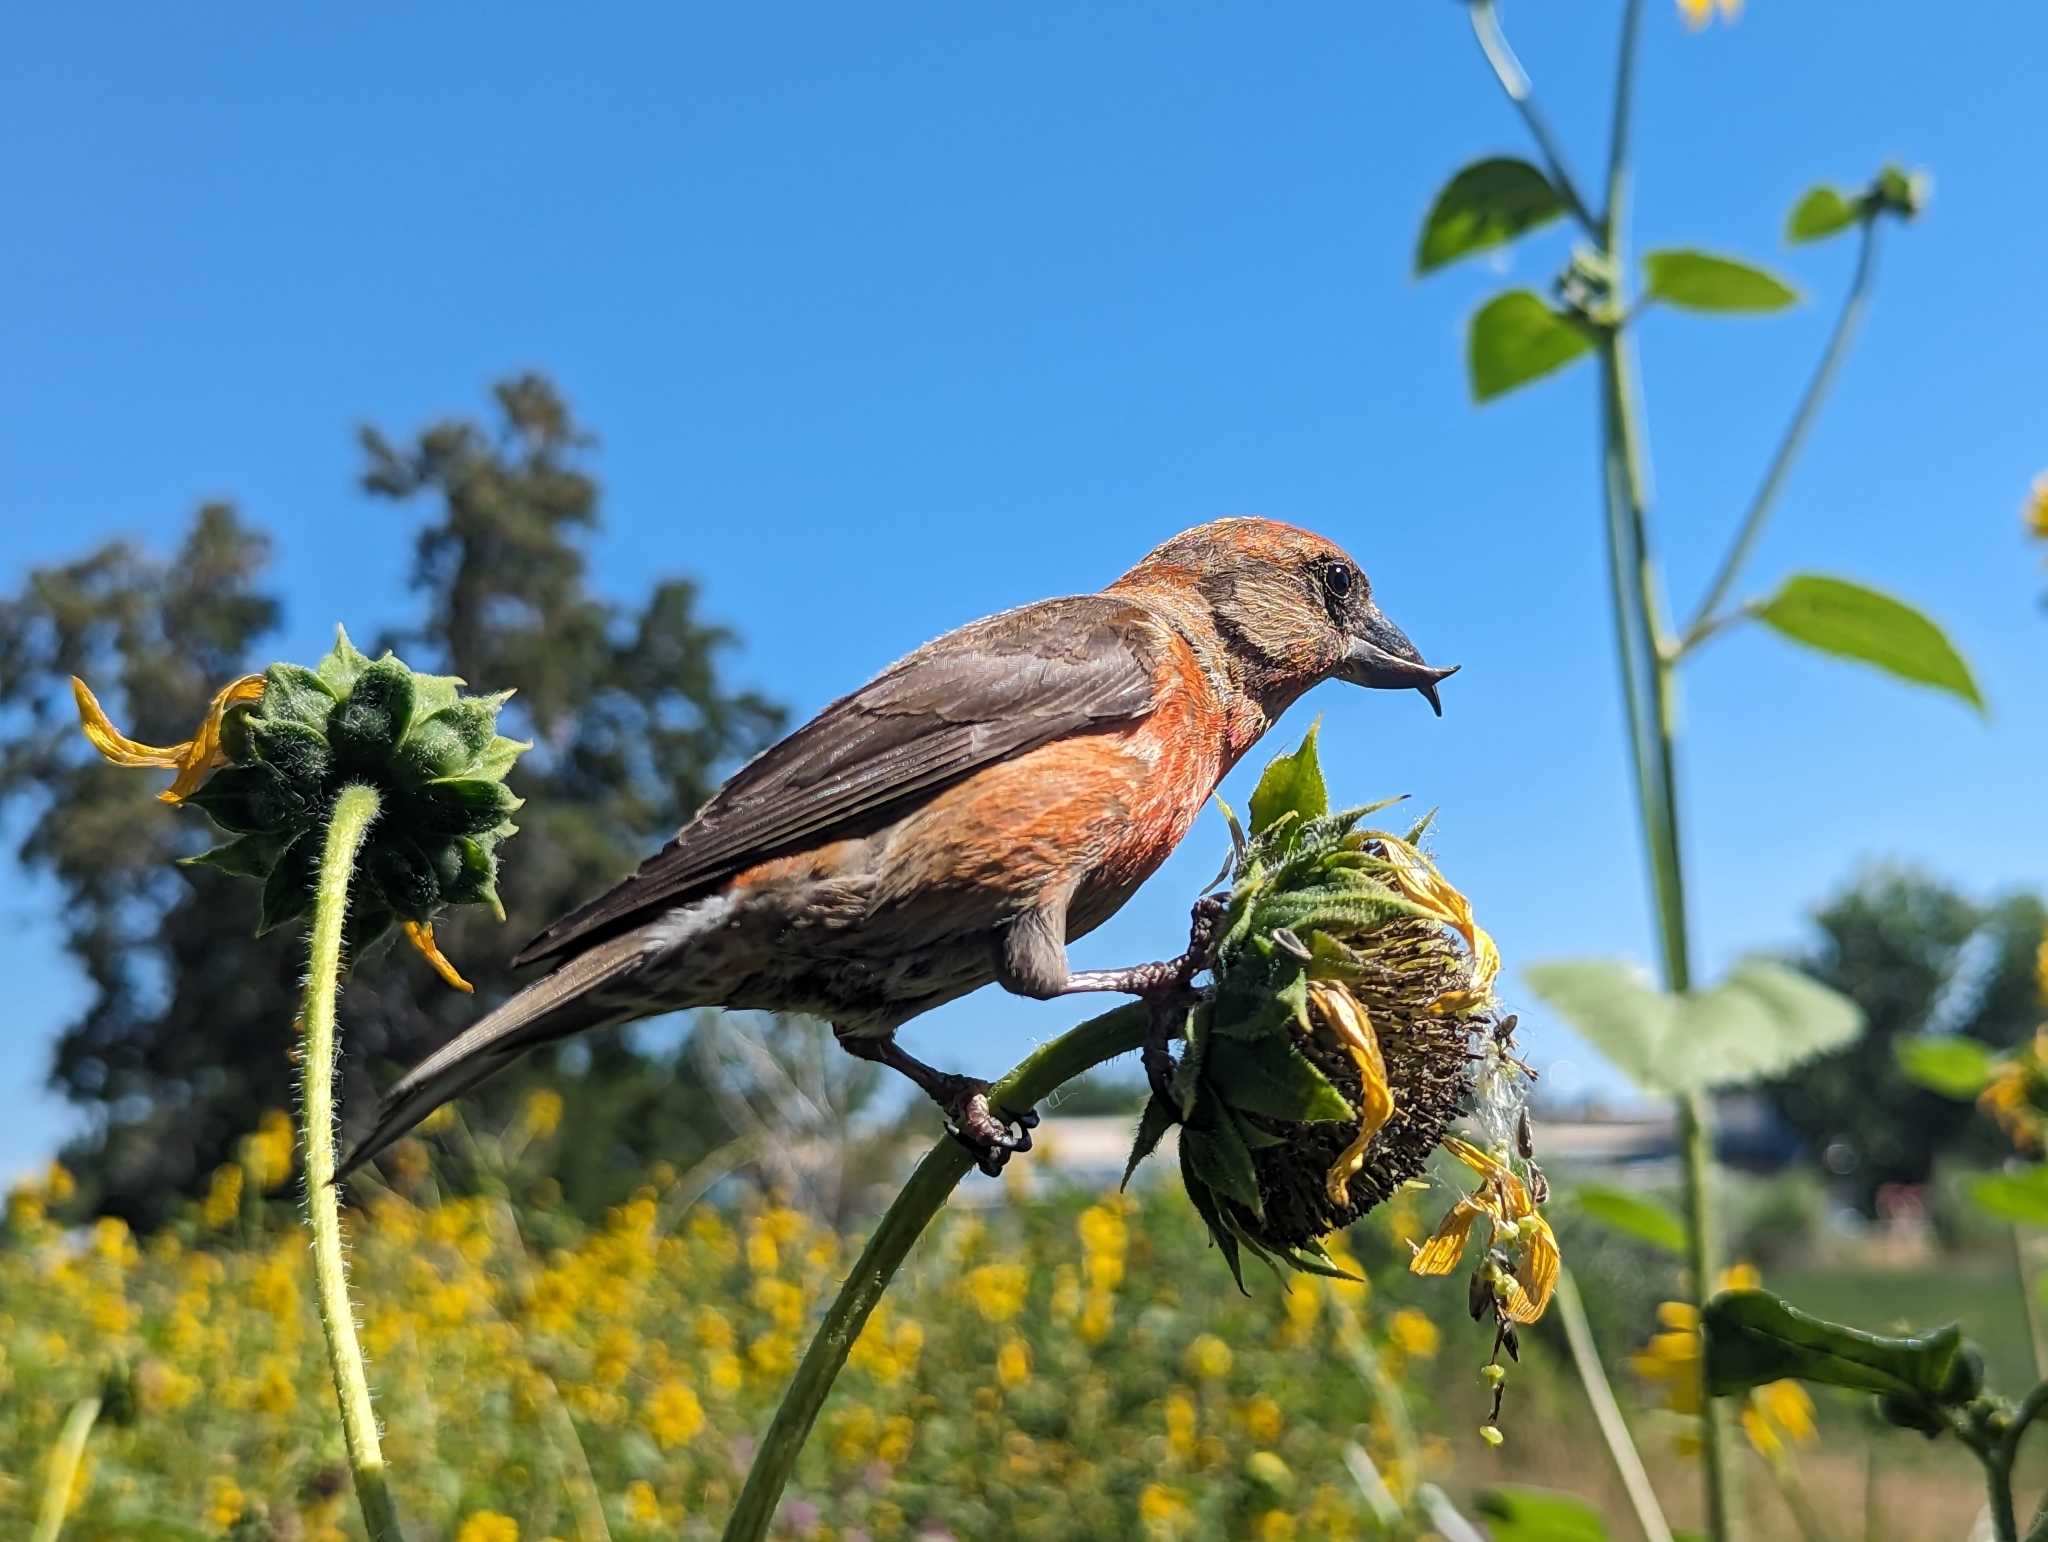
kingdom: Animalia
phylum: Chordata
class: Aves
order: Passeriformes
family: Fringillidae
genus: Loxia
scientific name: Loxia curvirostra
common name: Red crossbill
